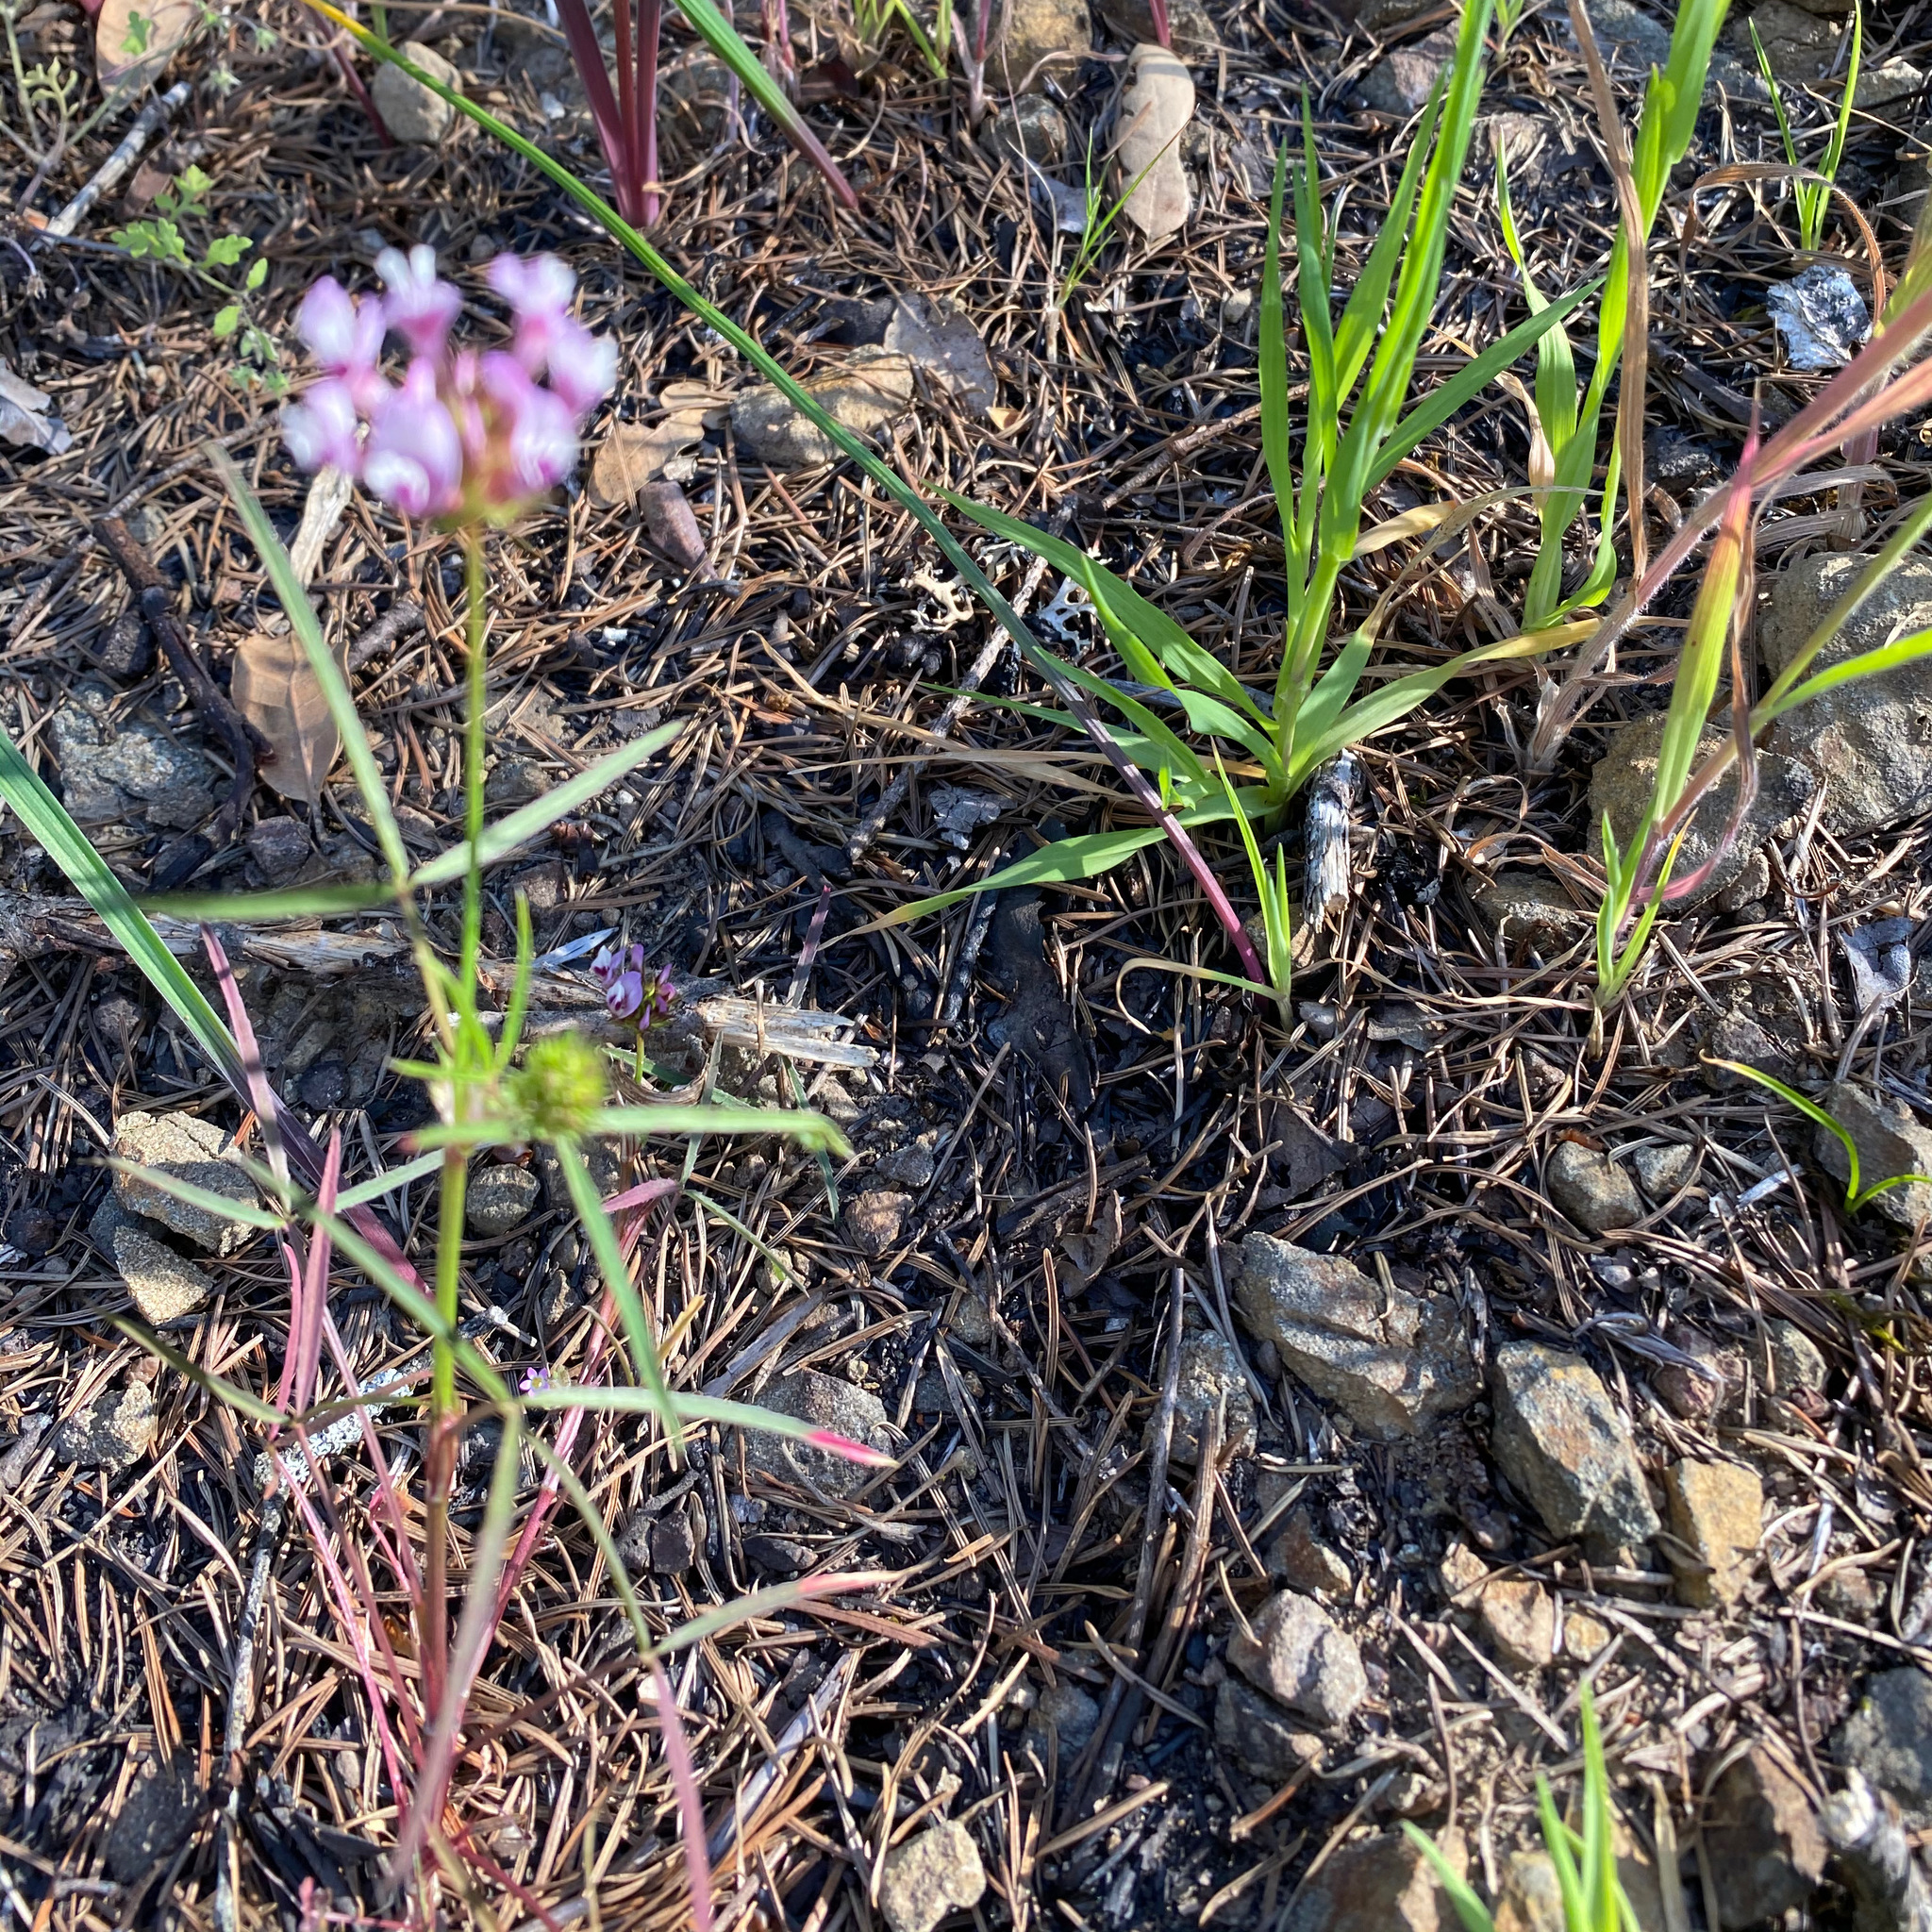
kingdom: Plantae
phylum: Tracheophyta
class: Magnoliopsida
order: Fabales
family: Fabaceae
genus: Trifolium
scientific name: Trifolium willdenovii
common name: Tomcat clover
